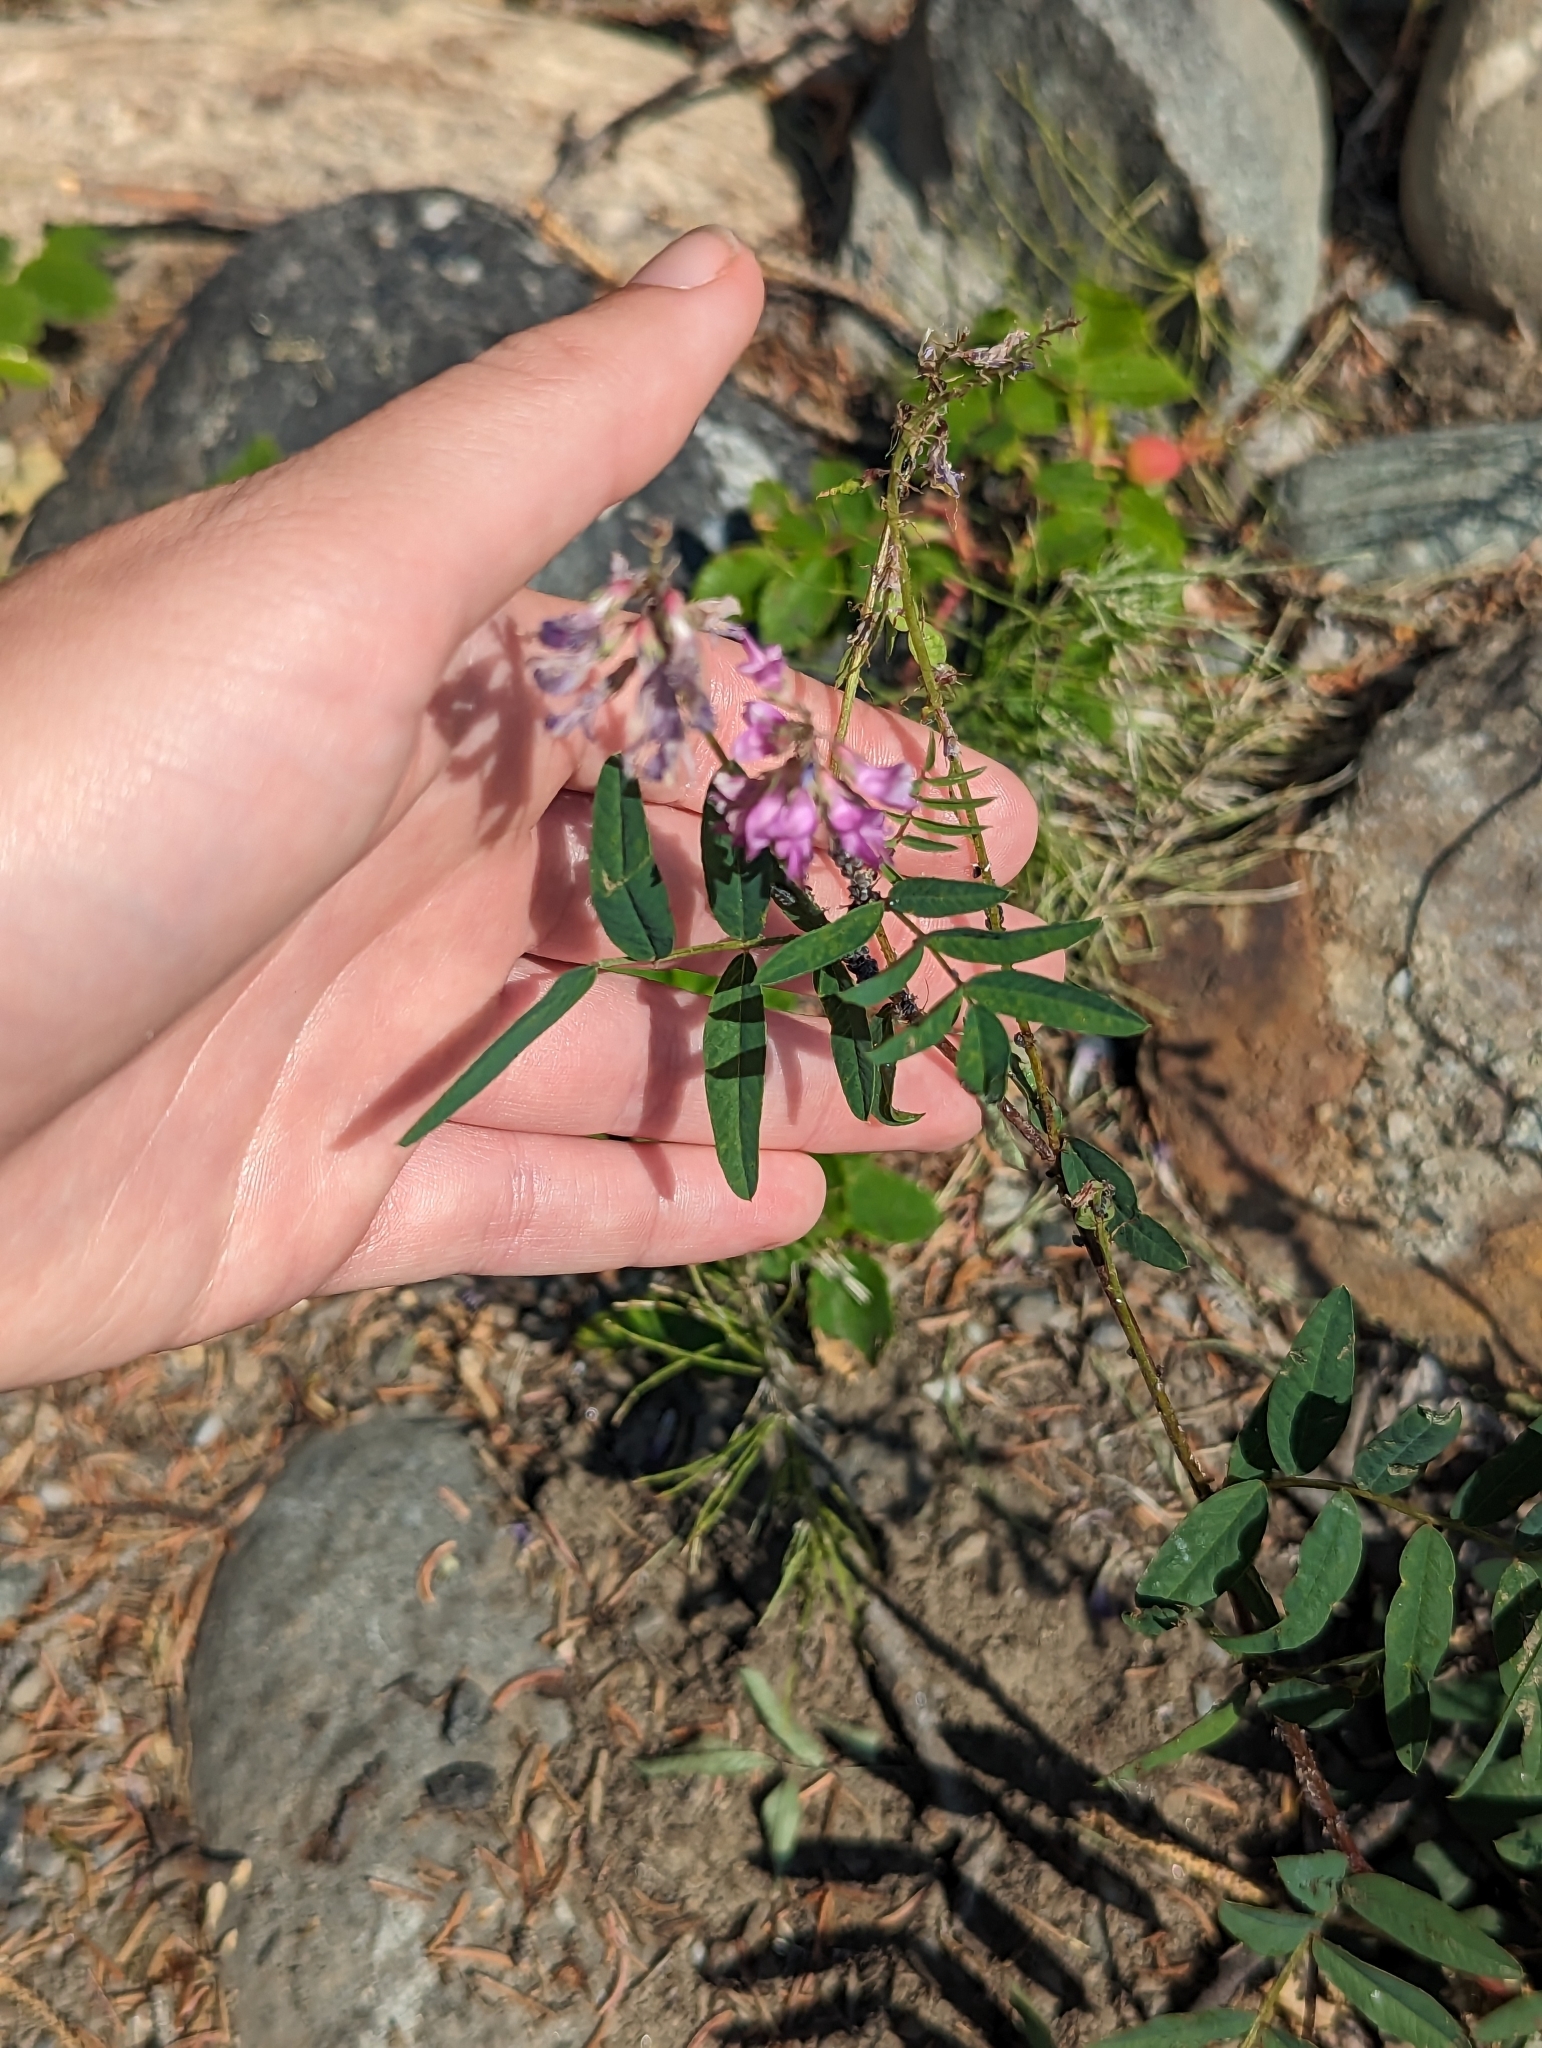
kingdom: Plantae
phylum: Tracheophyta
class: Magnoliopsida
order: Fabales
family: Fabaceae
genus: Hedysarum
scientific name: Hedysarum
